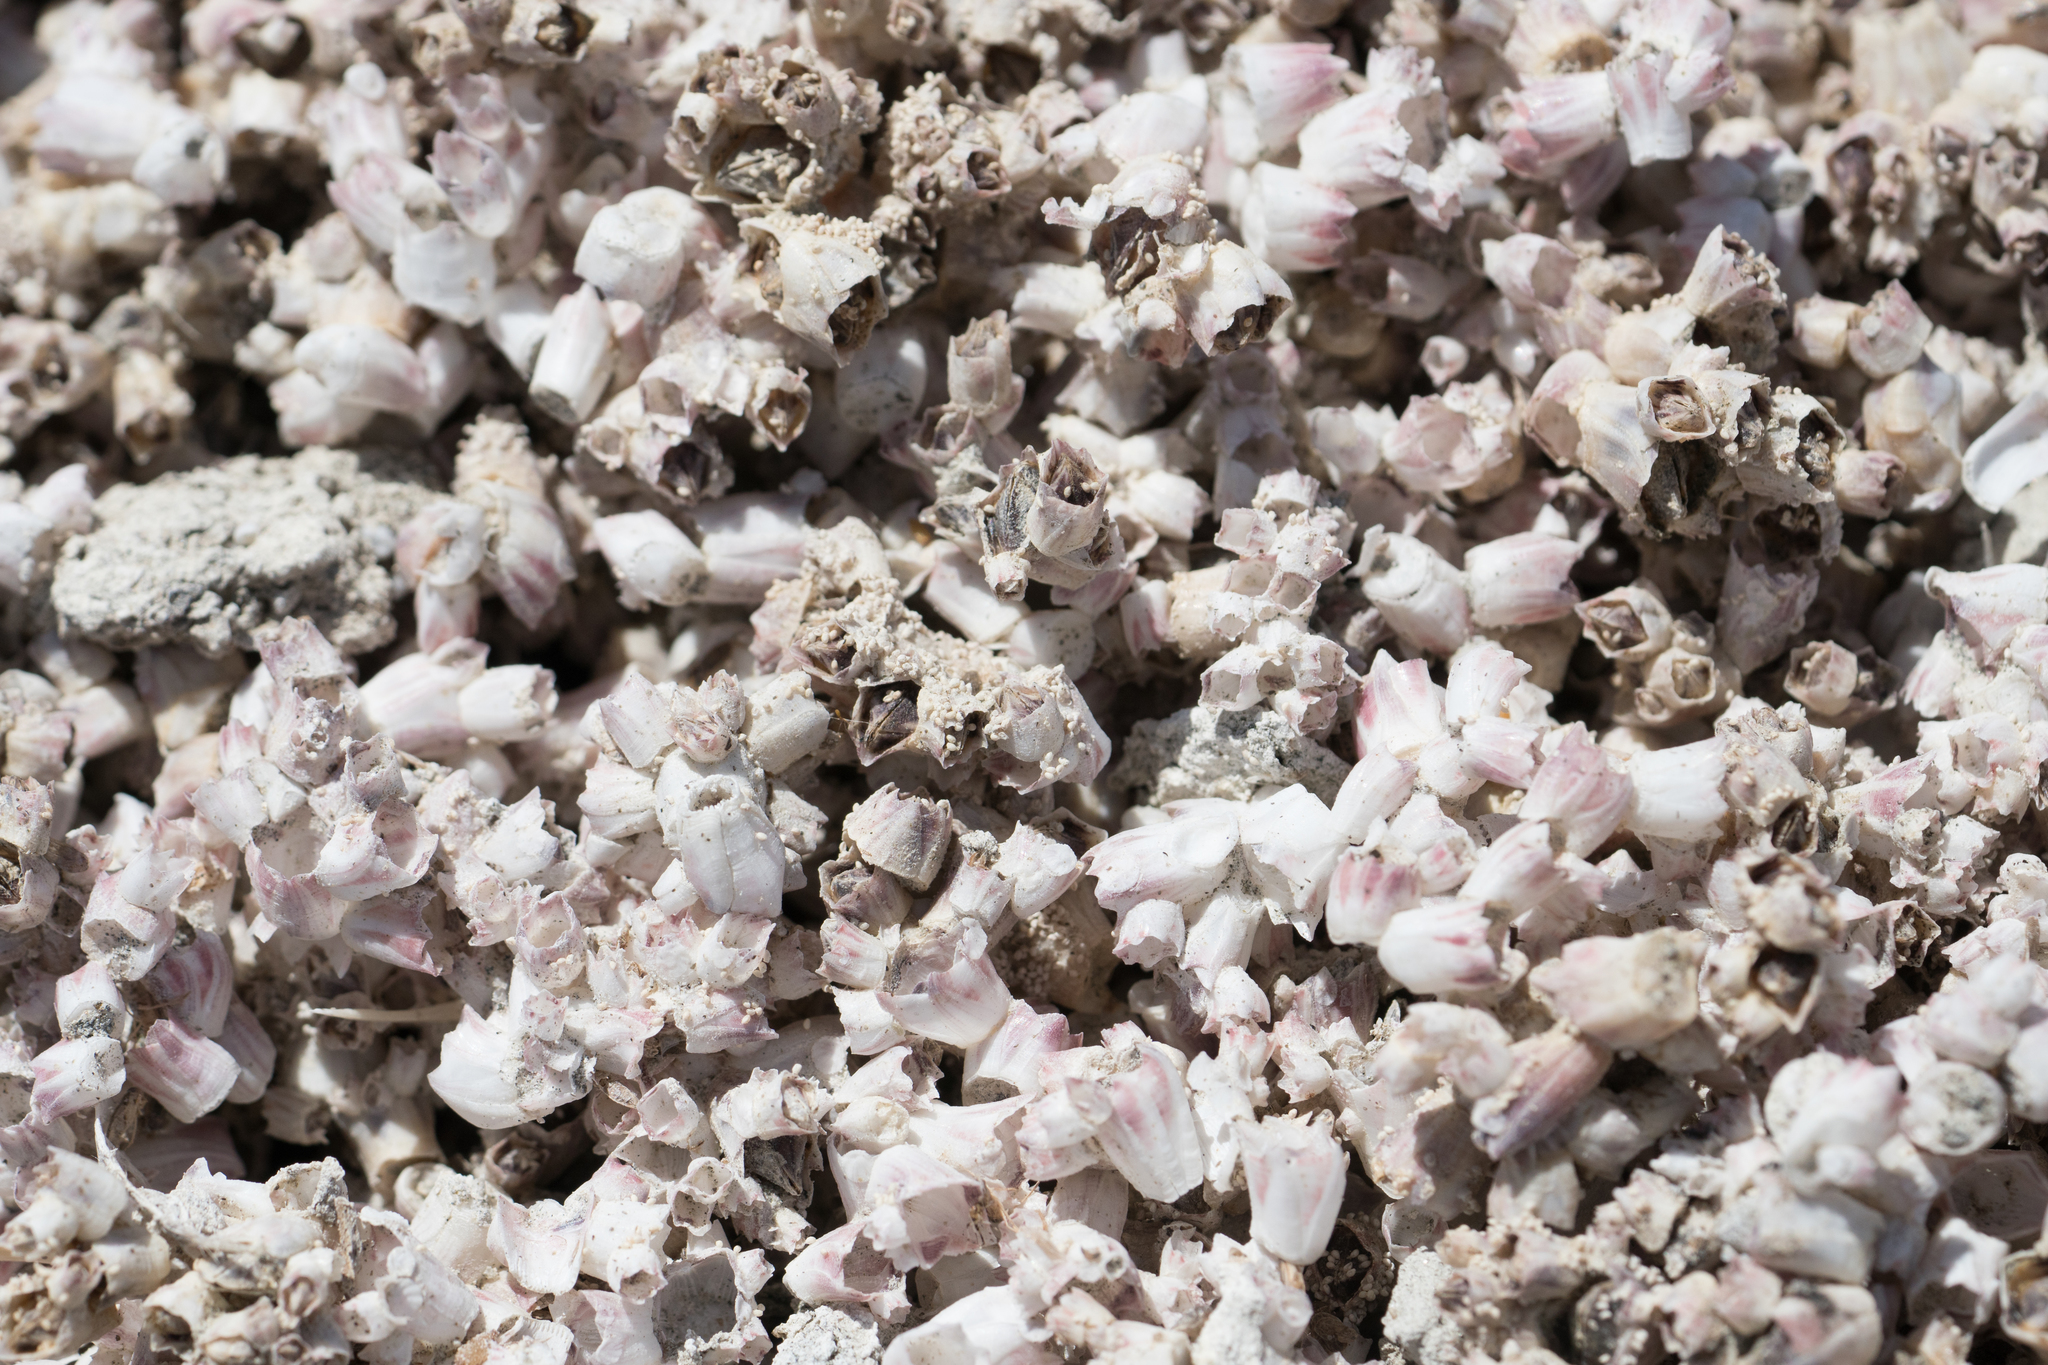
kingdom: Animalia
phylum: Arthropoda
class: Maxillopoda
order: Sessilia
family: Balanidae
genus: Amphibalanus
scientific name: Amphibalanus amphitrite
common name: Striped acorn barnacle
